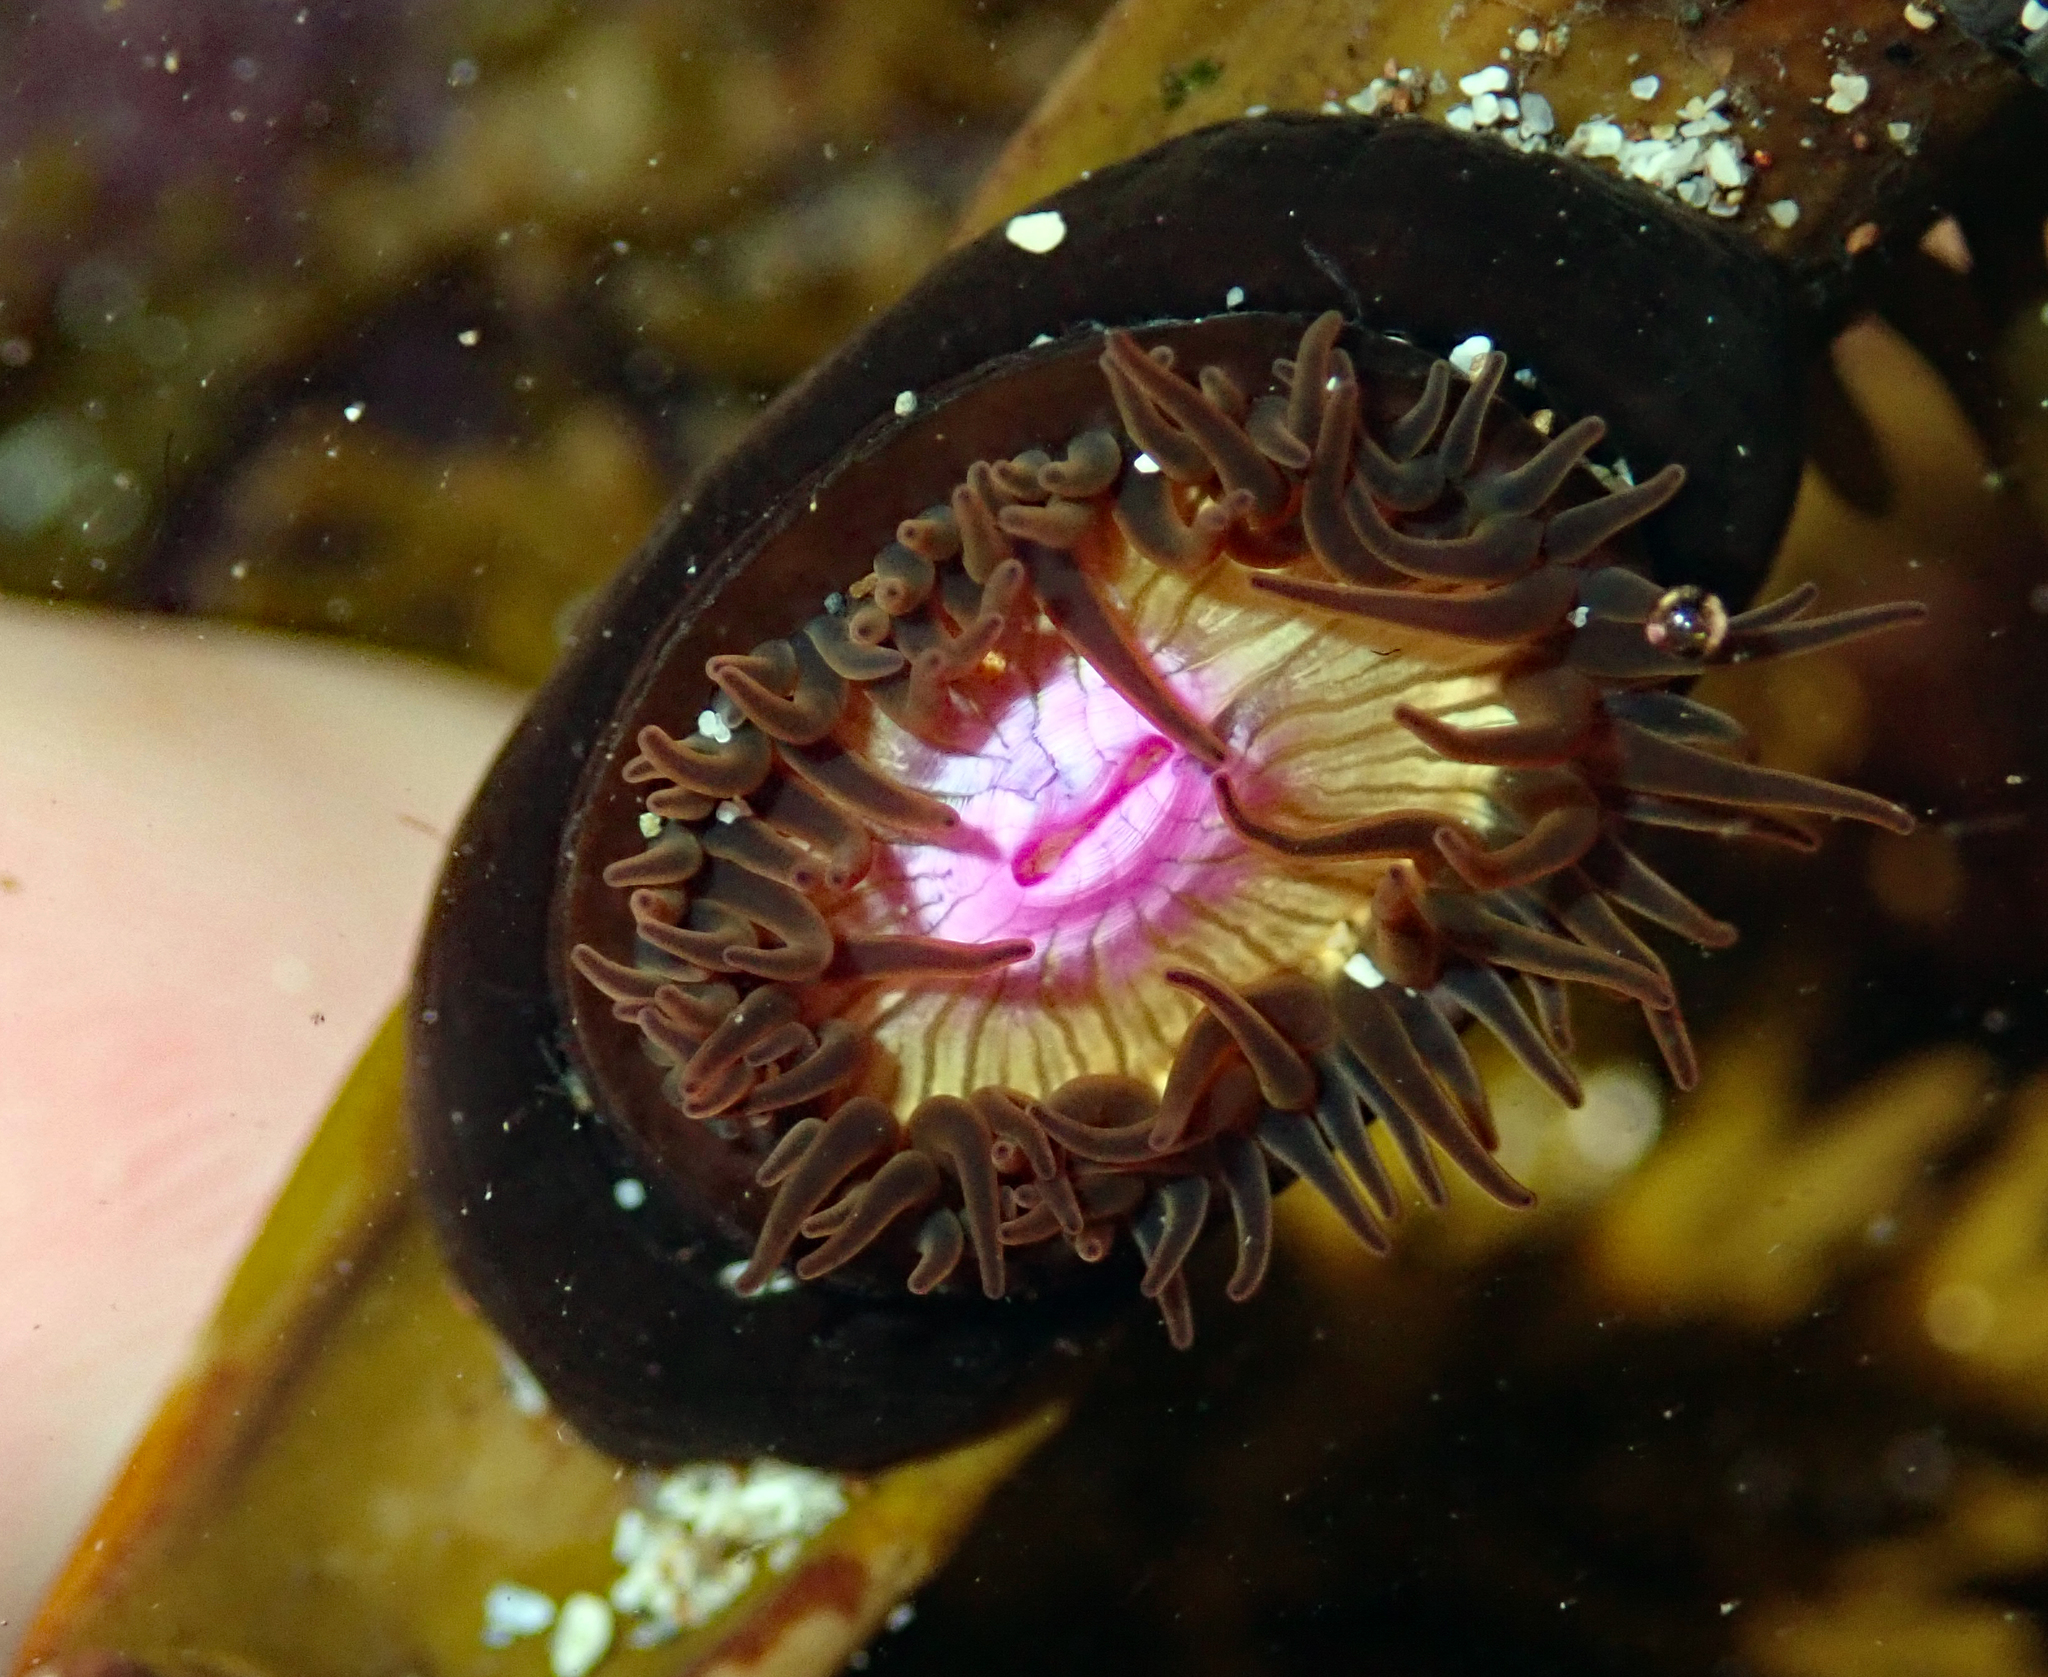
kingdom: Animalia
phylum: Cnidaria
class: Anthozoa
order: Actiniaria
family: Hormathiidae
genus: Handactis
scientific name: Handactis nutrix
